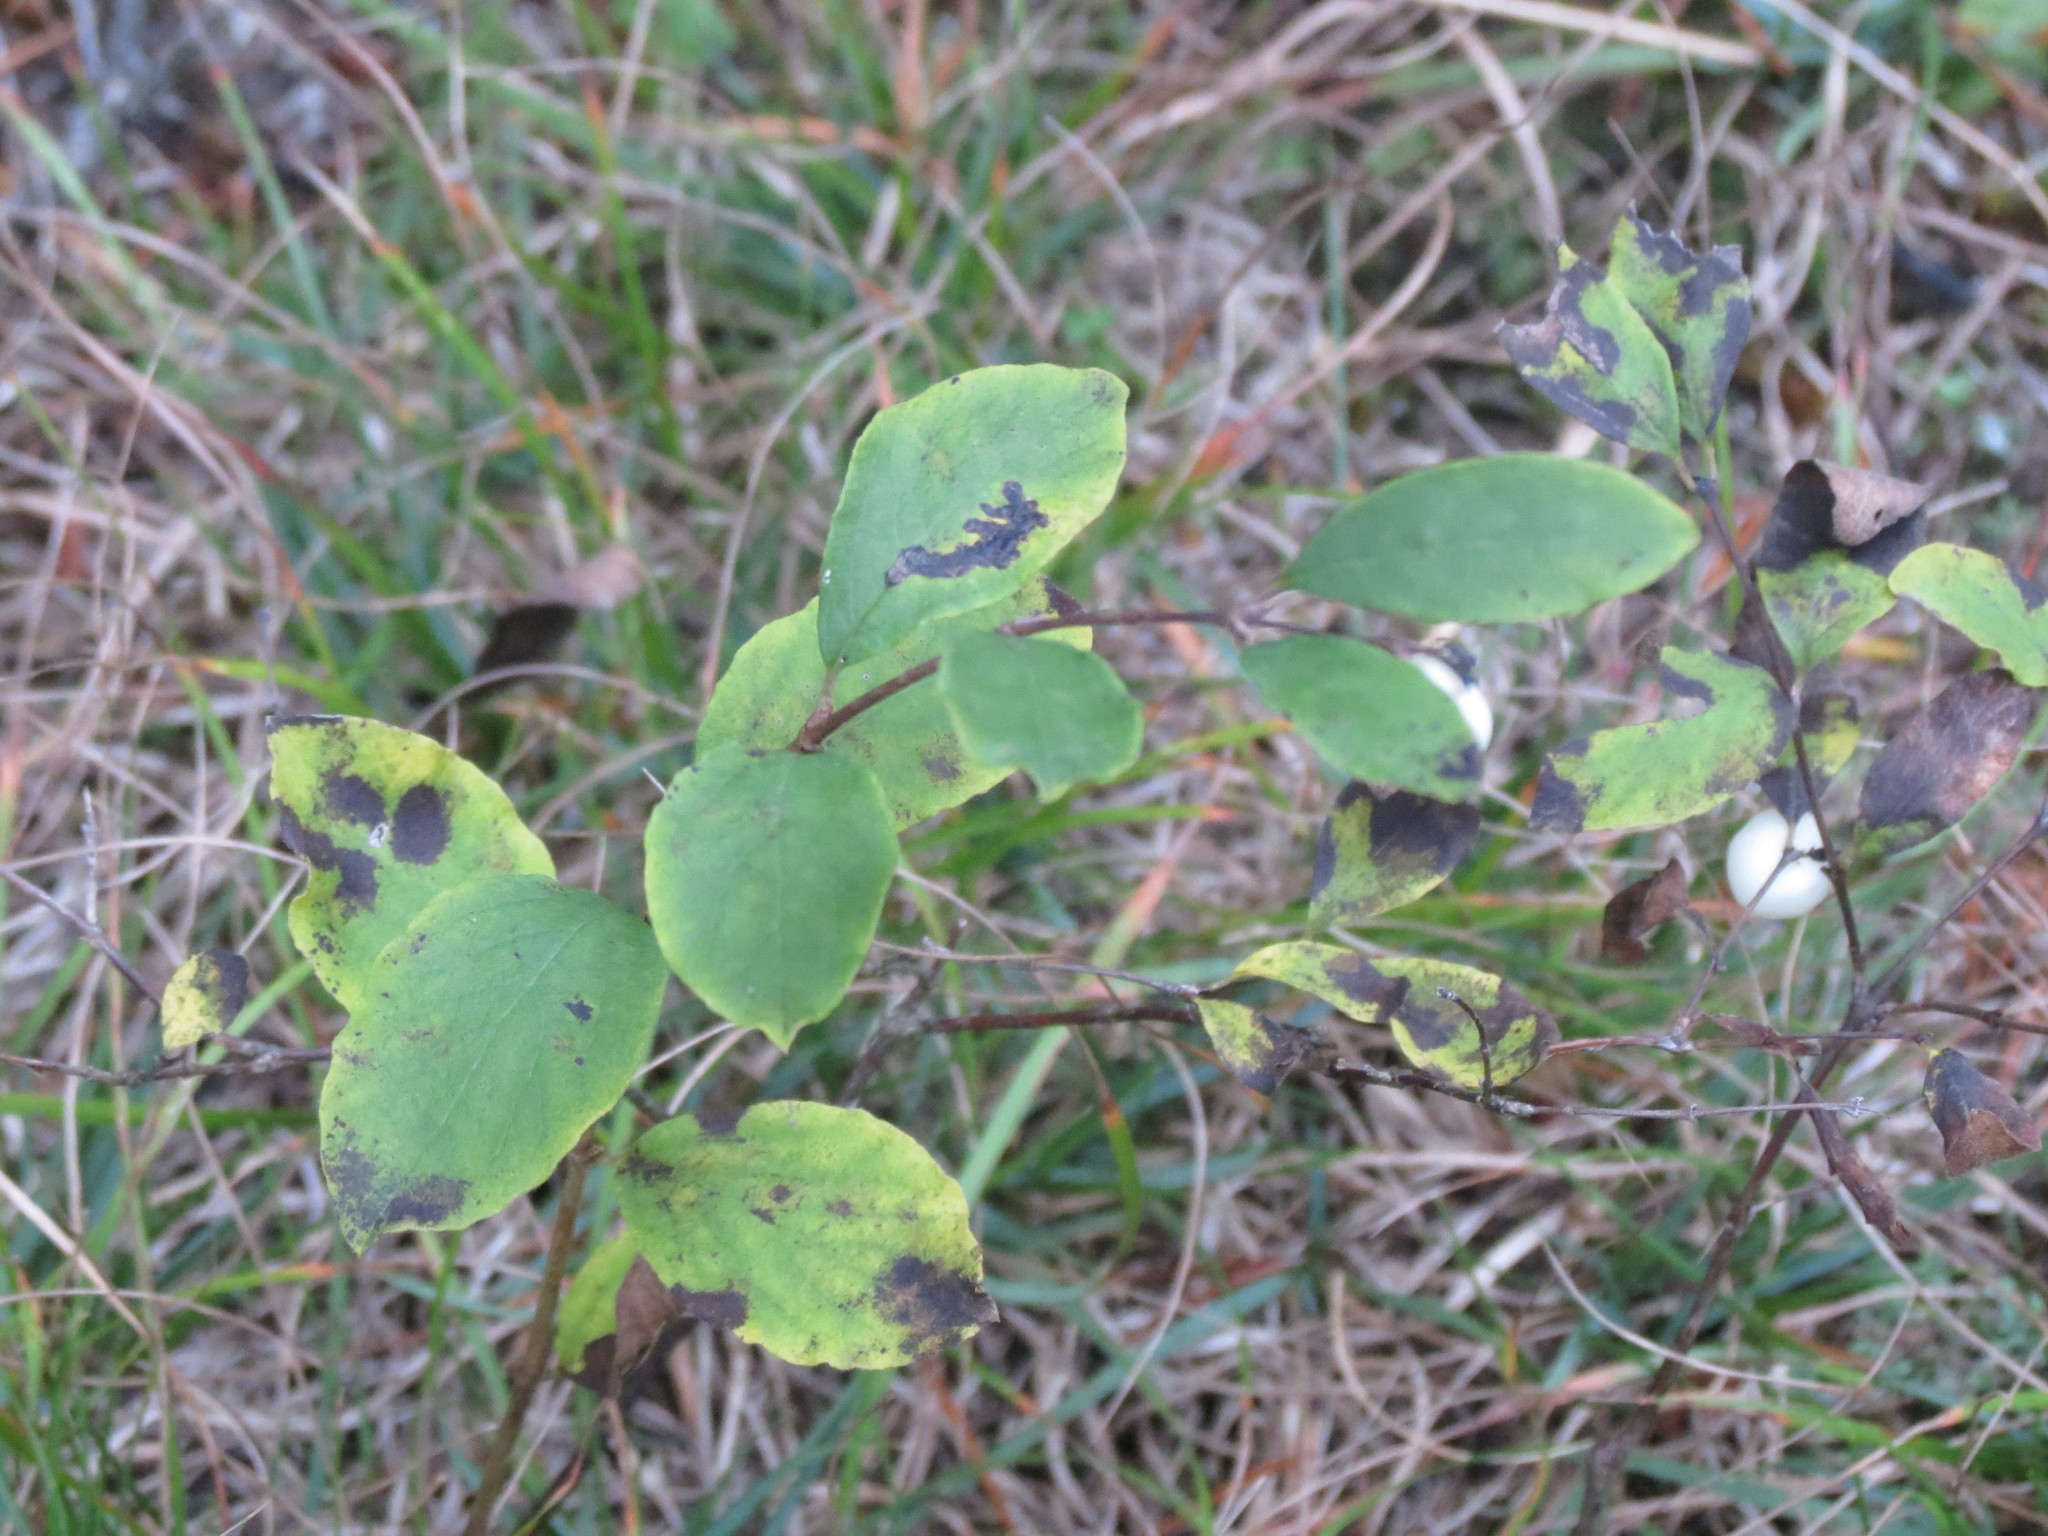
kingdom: Plantae
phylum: Tracheophyta
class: Magnoliopsida
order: Dipsacales
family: Caprifoliaceae
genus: Symphoricarpos
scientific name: Symphoricarpos albus
